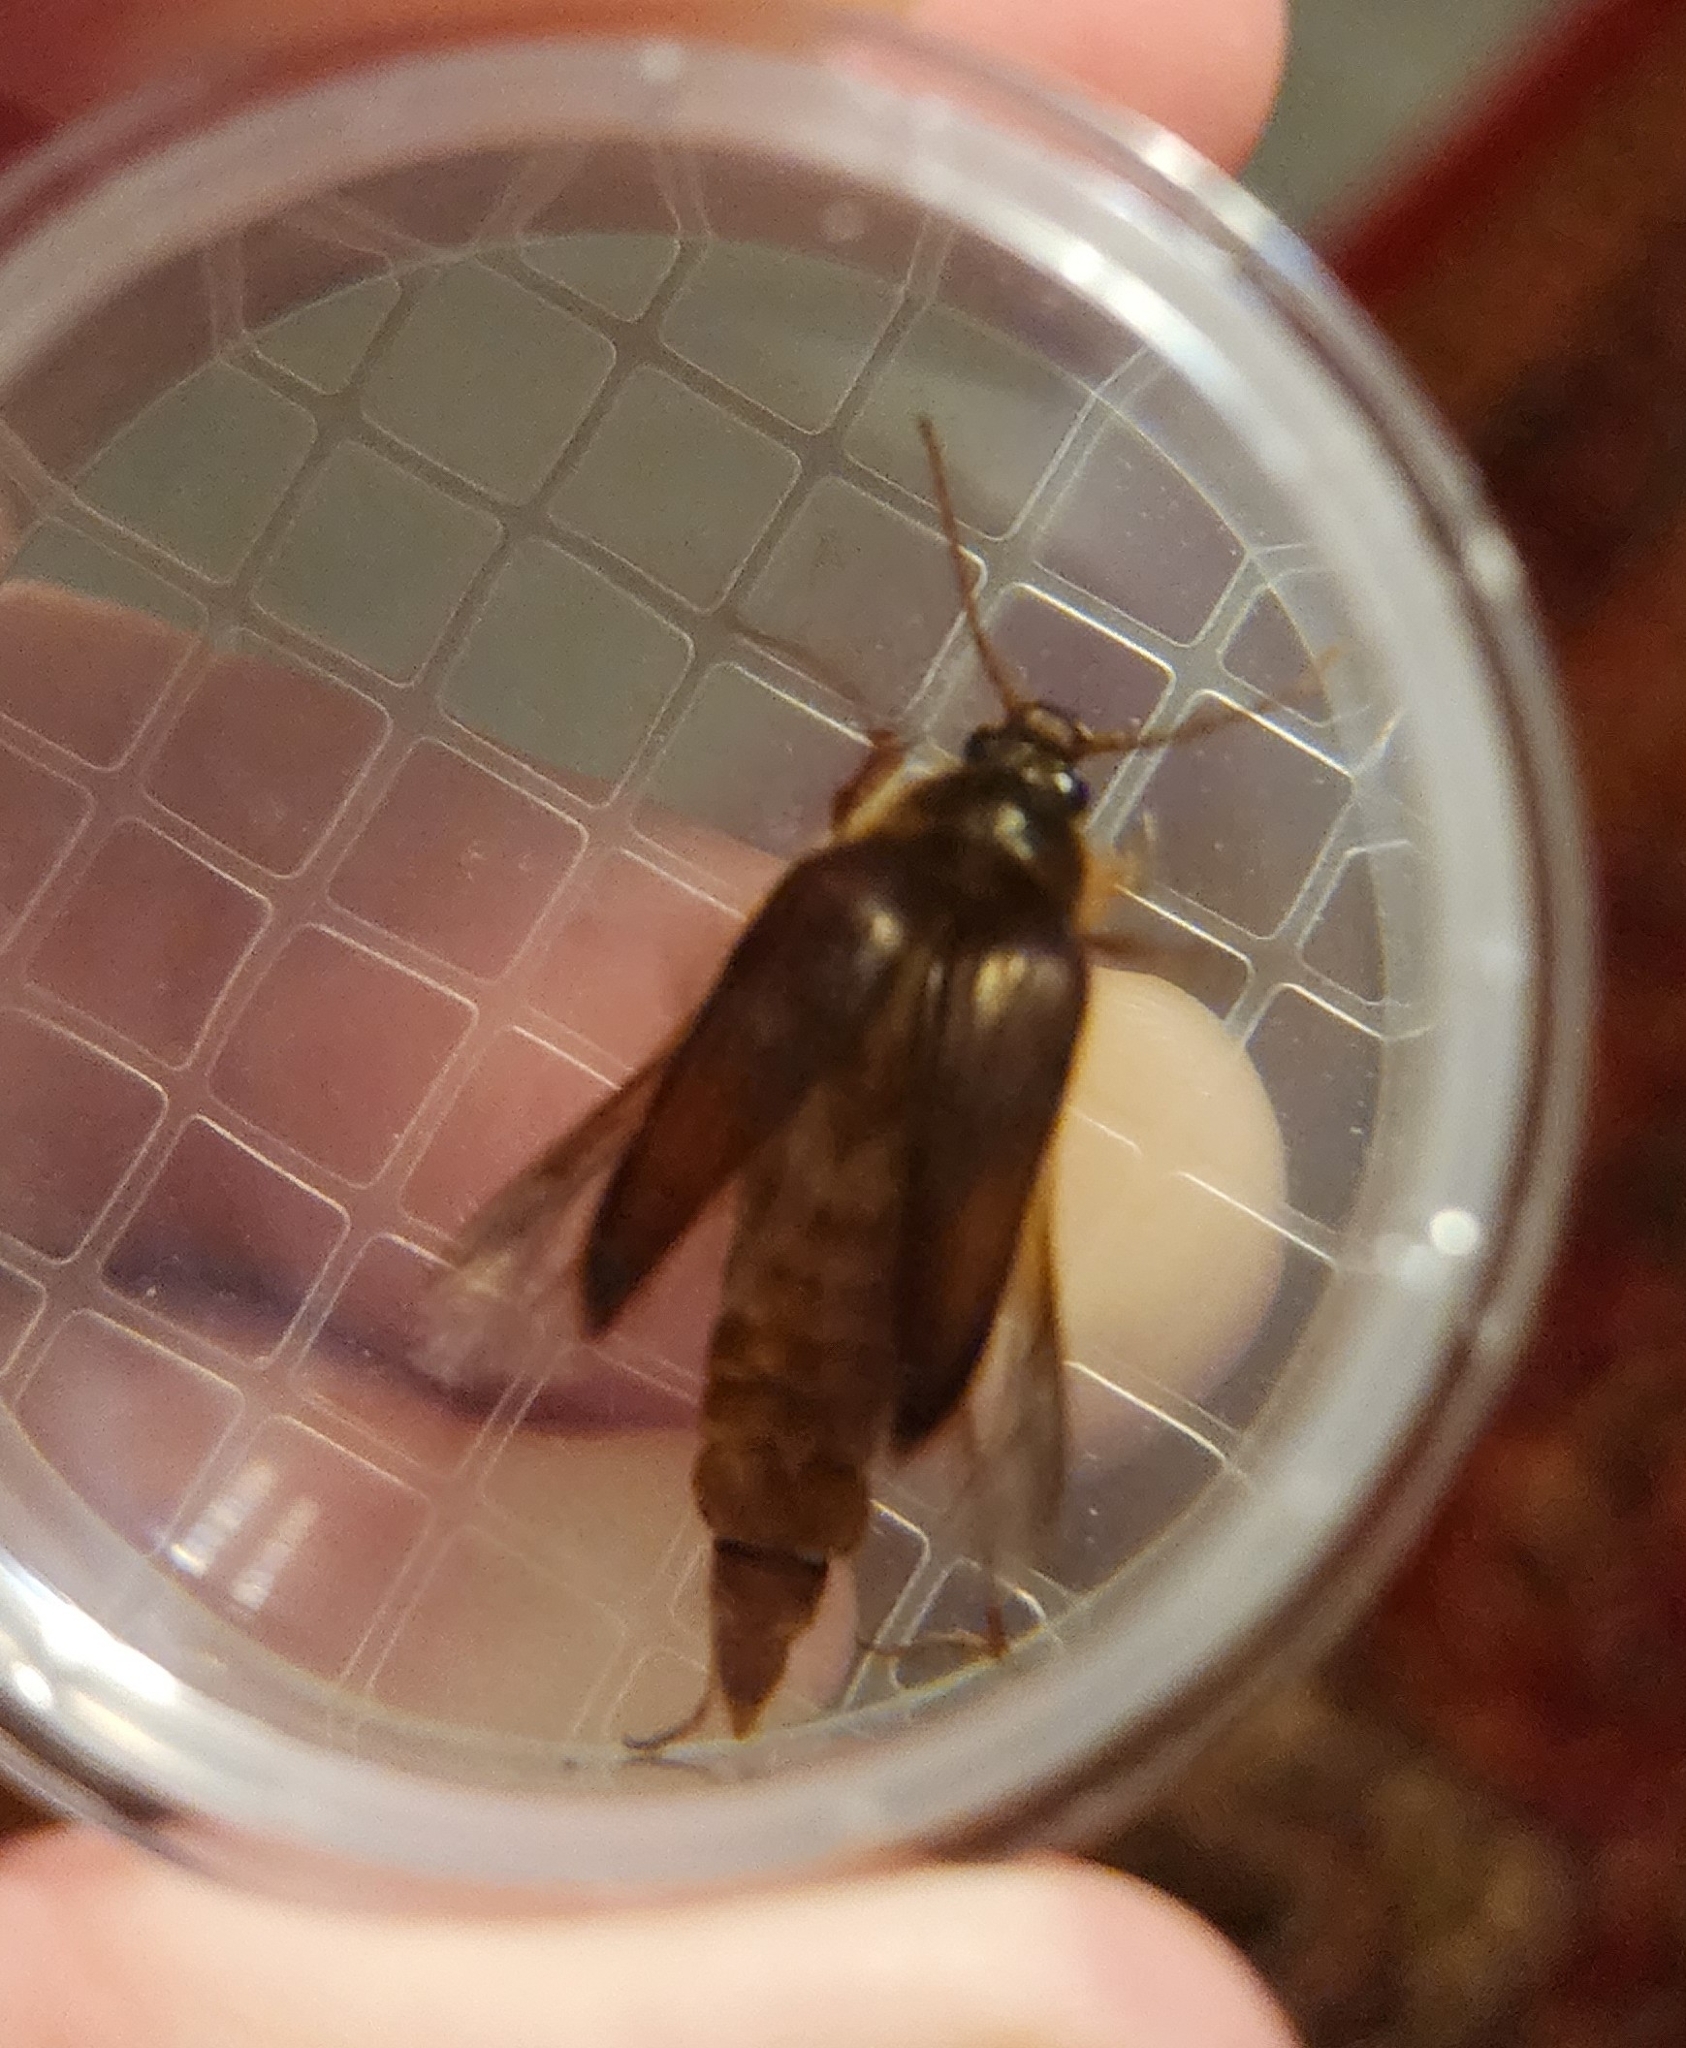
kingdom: Animalia
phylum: Arthropoda
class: Insecta
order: Coleoptera
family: Elateridae
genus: Scaptolenus
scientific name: Scaptolenus
